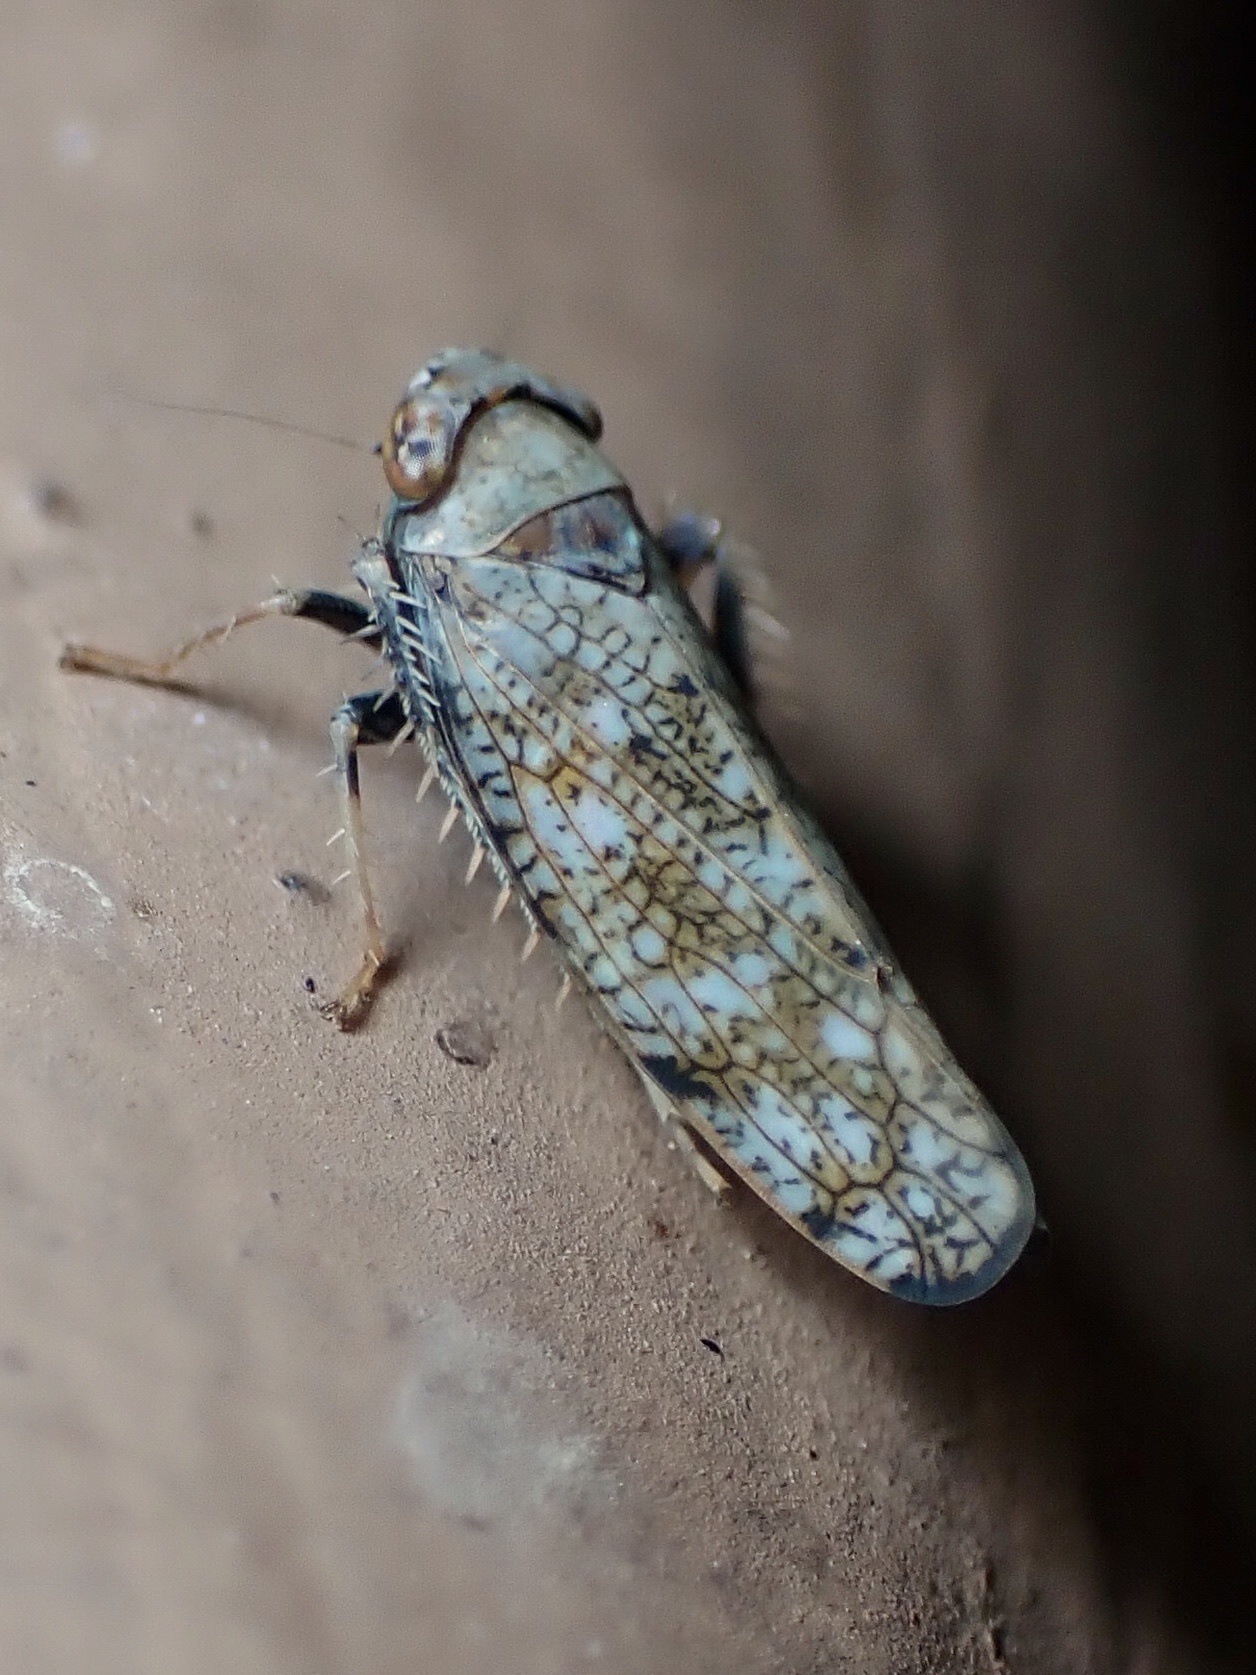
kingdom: Animalia
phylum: Arthropoda
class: Insecta
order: Hemiptera
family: Cicadellidae
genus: Orientus
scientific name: Orientus ishidae
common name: Japanese leafhopper
